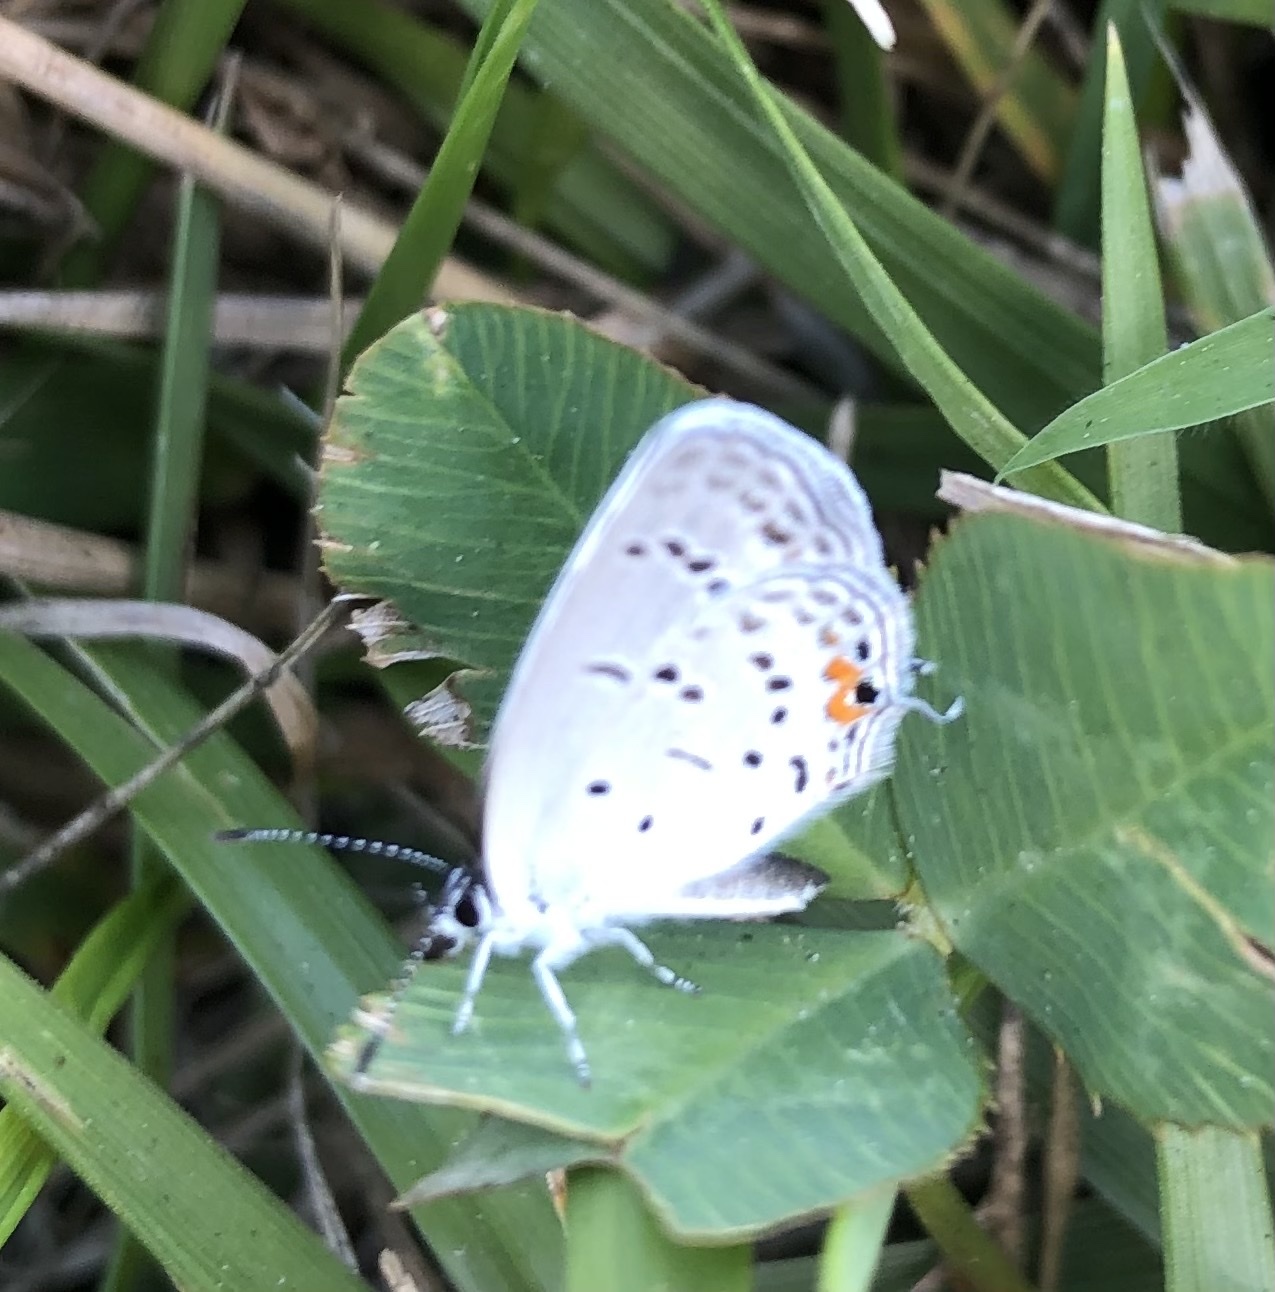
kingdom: Animalia
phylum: Arthropoda
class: Insecta
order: Lepidoptera
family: Lycaenidae
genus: Elkalyce
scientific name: Elkalyce comyntas
